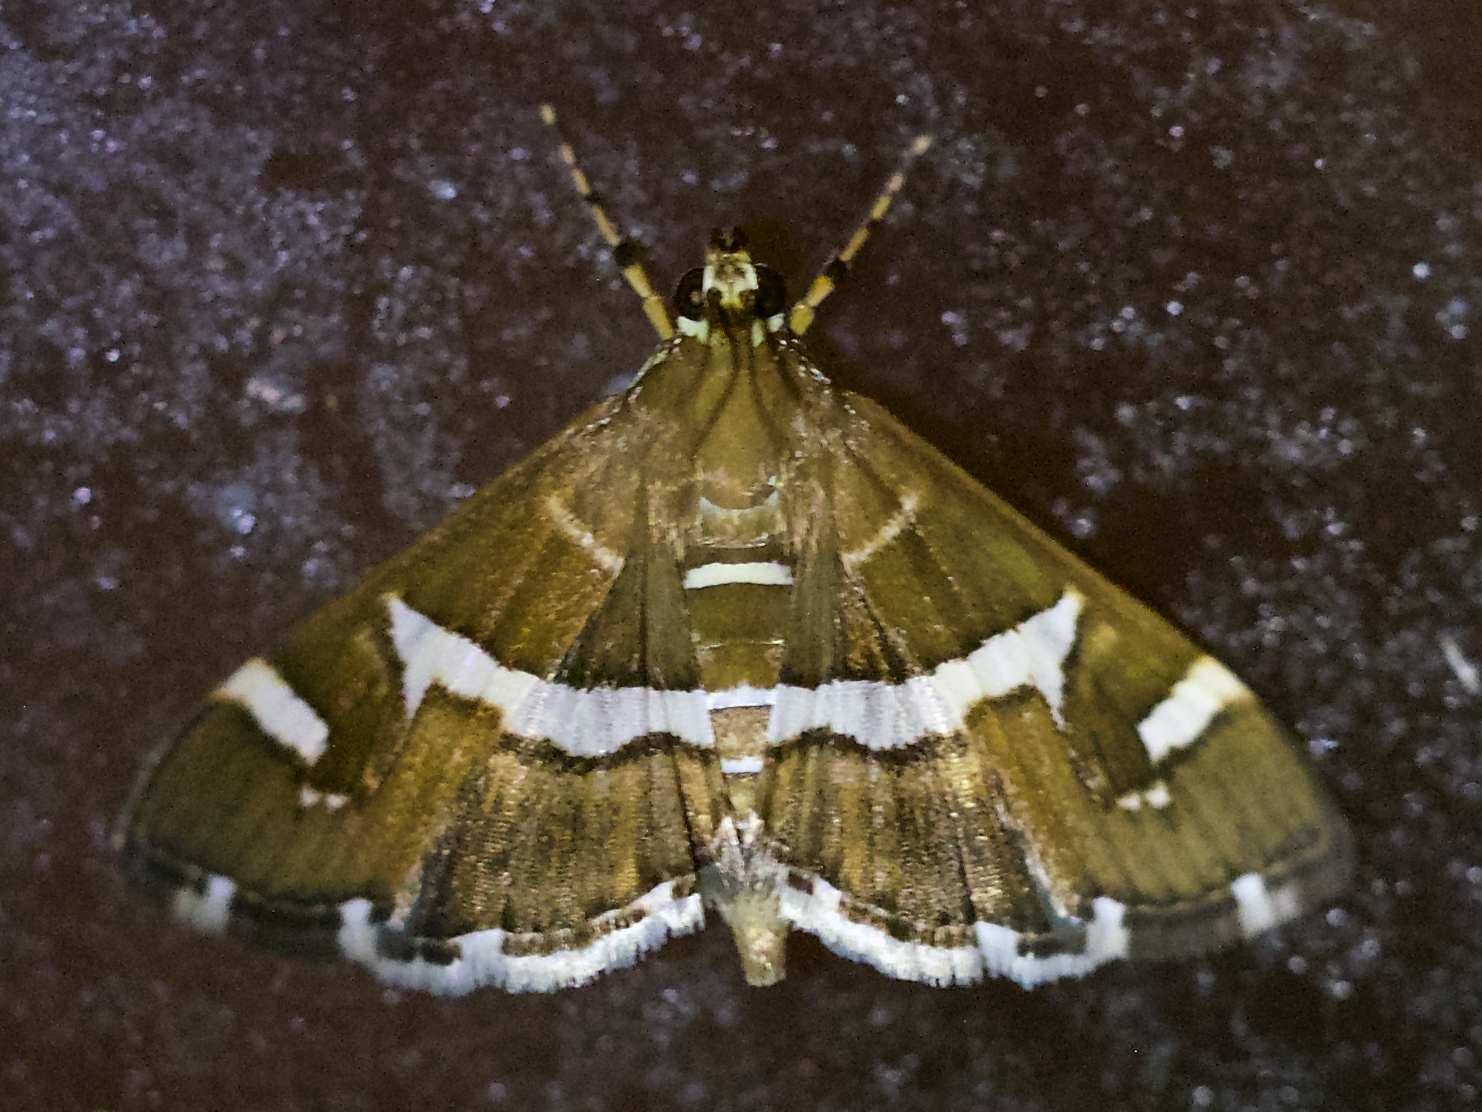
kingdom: Animalia
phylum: Arthropoda
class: Insecta
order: Lepidoptera
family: Crambidae
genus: Spoladea
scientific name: Spoladea recurvalis
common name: Beet webworm moth
